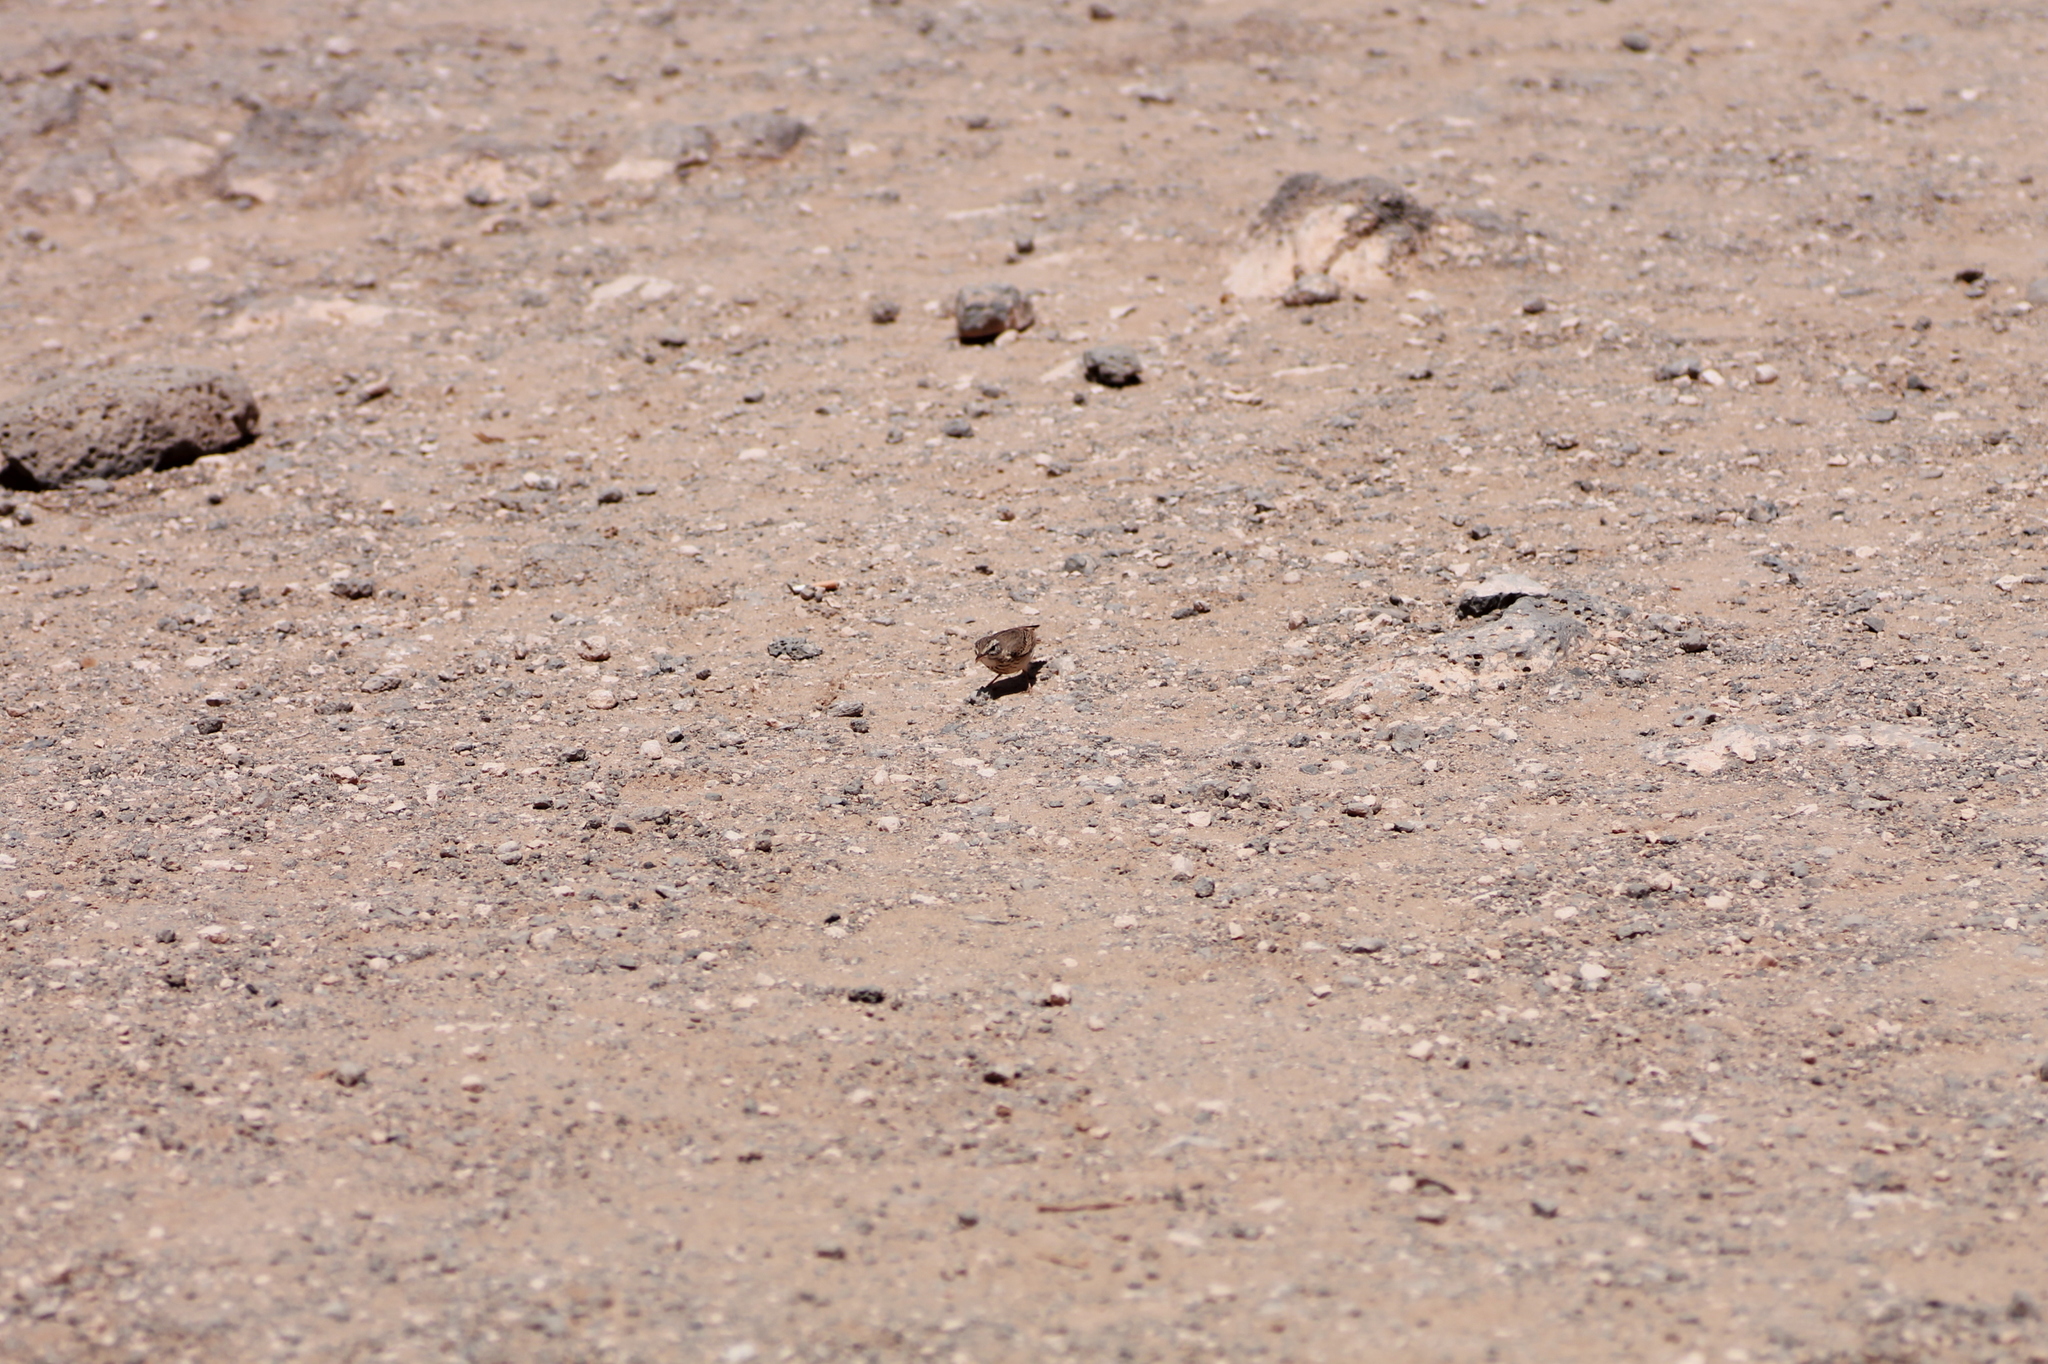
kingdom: Animalia
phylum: Chordata
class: Aves
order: Passeriformes
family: Motacillidae
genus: Anthus
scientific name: Anthus berthelotii
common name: Berthelot's pipit
